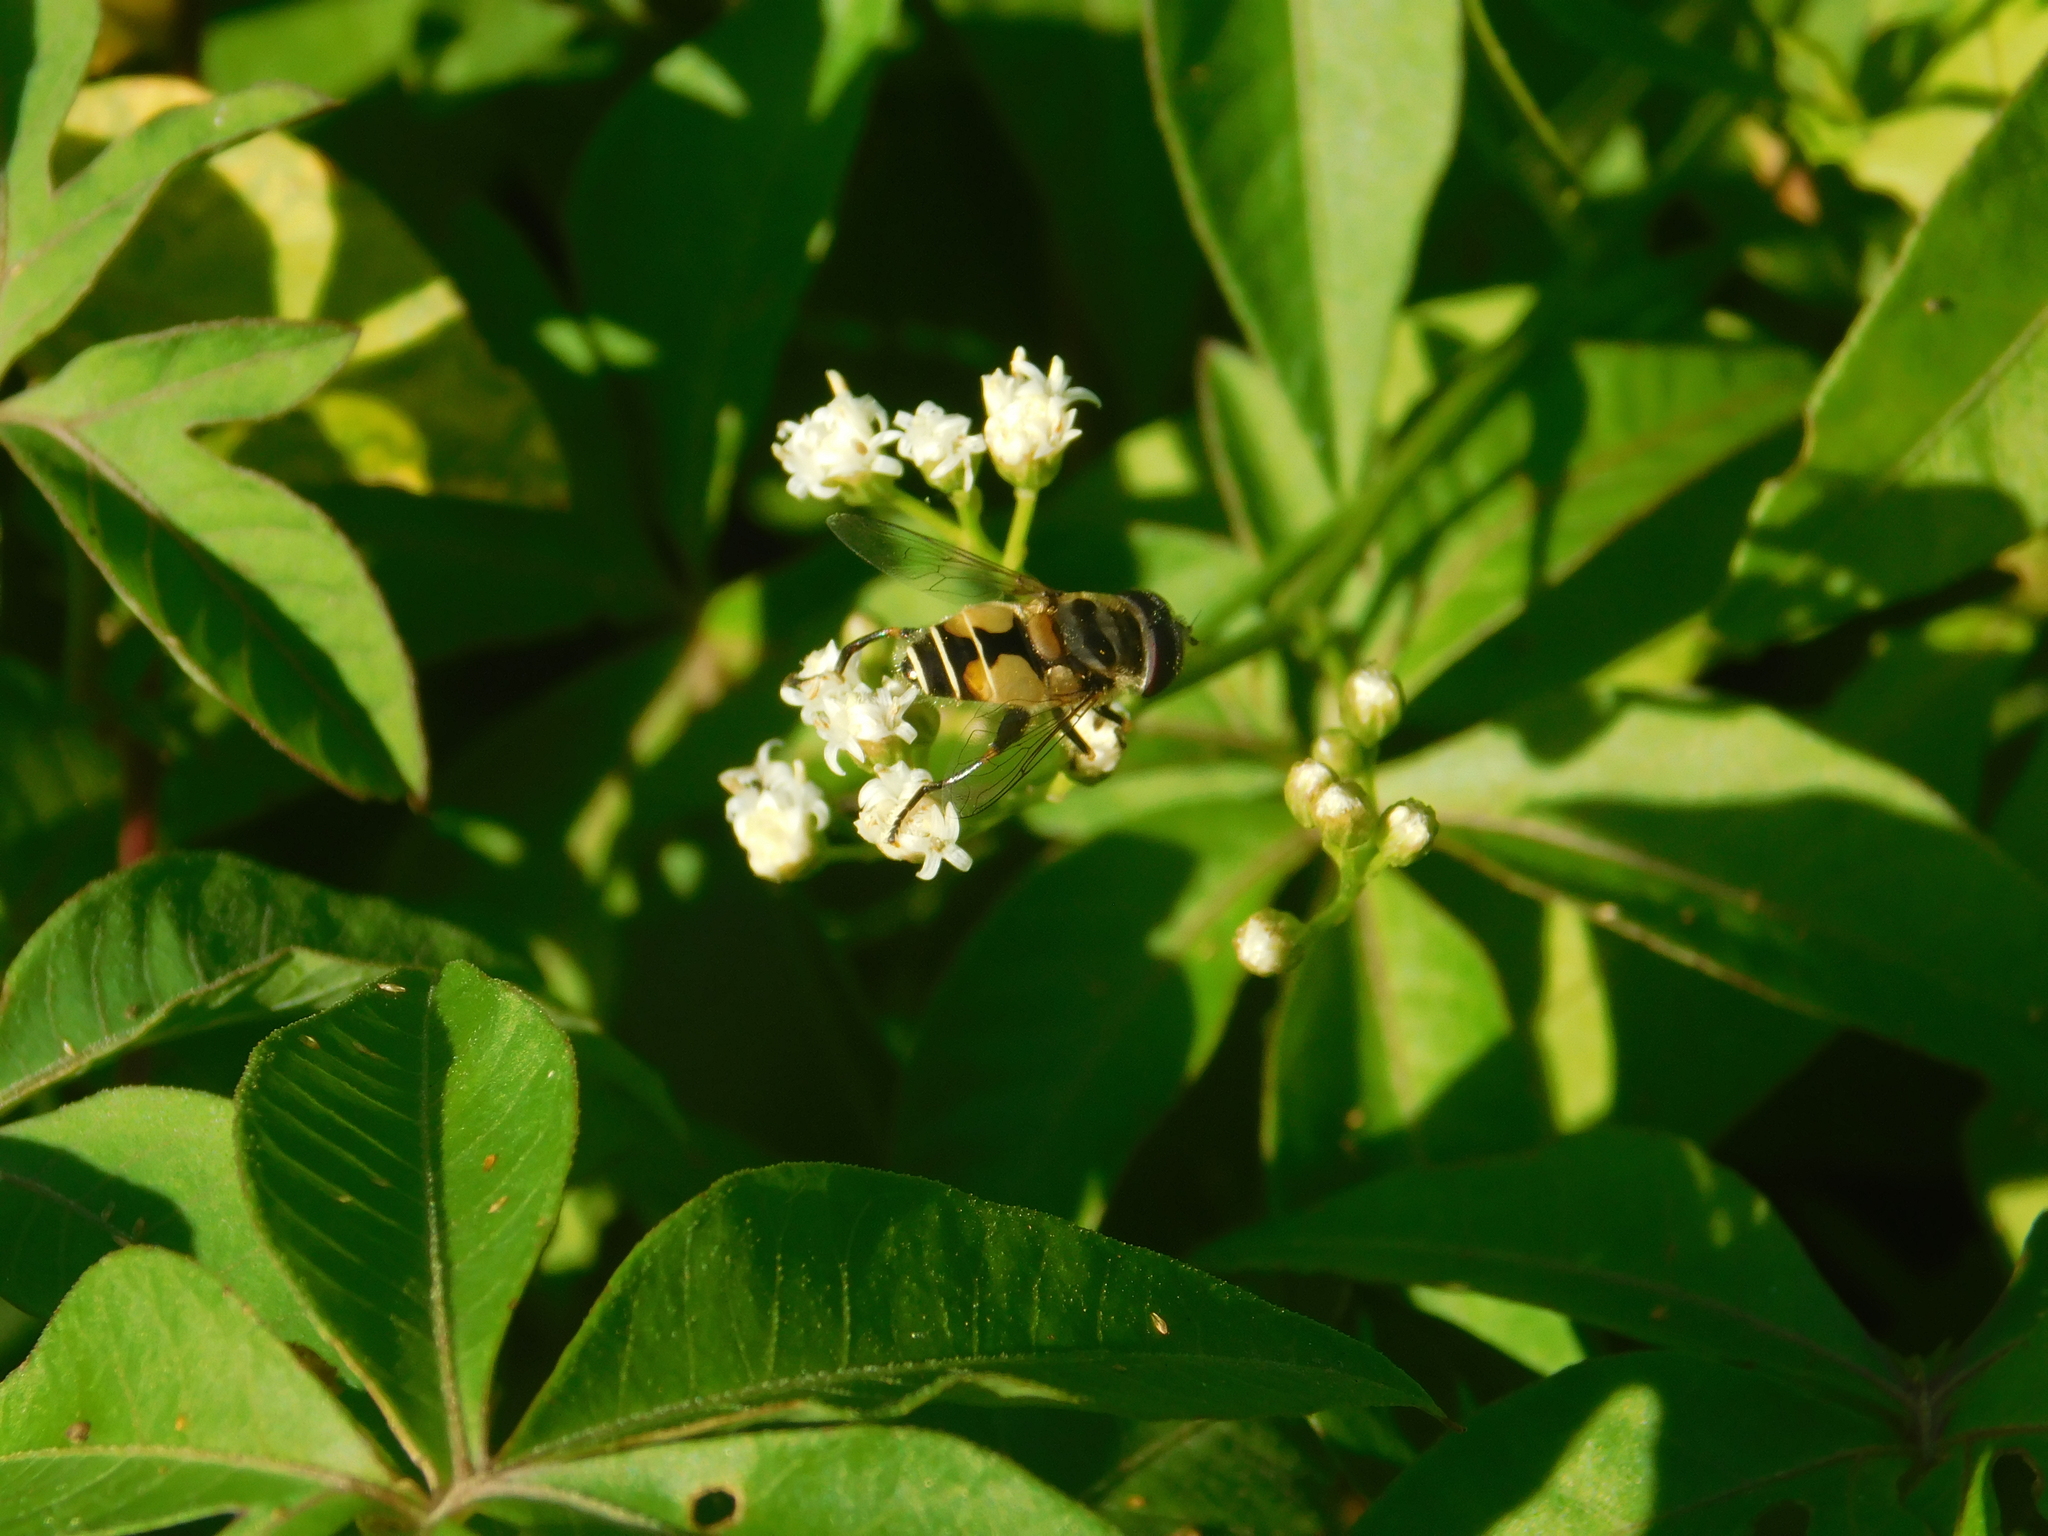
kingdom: Animalia
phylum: Arthropoda
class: Insecta
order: Diptera
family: Syrphidae
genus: Palpada
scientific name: Palpada
